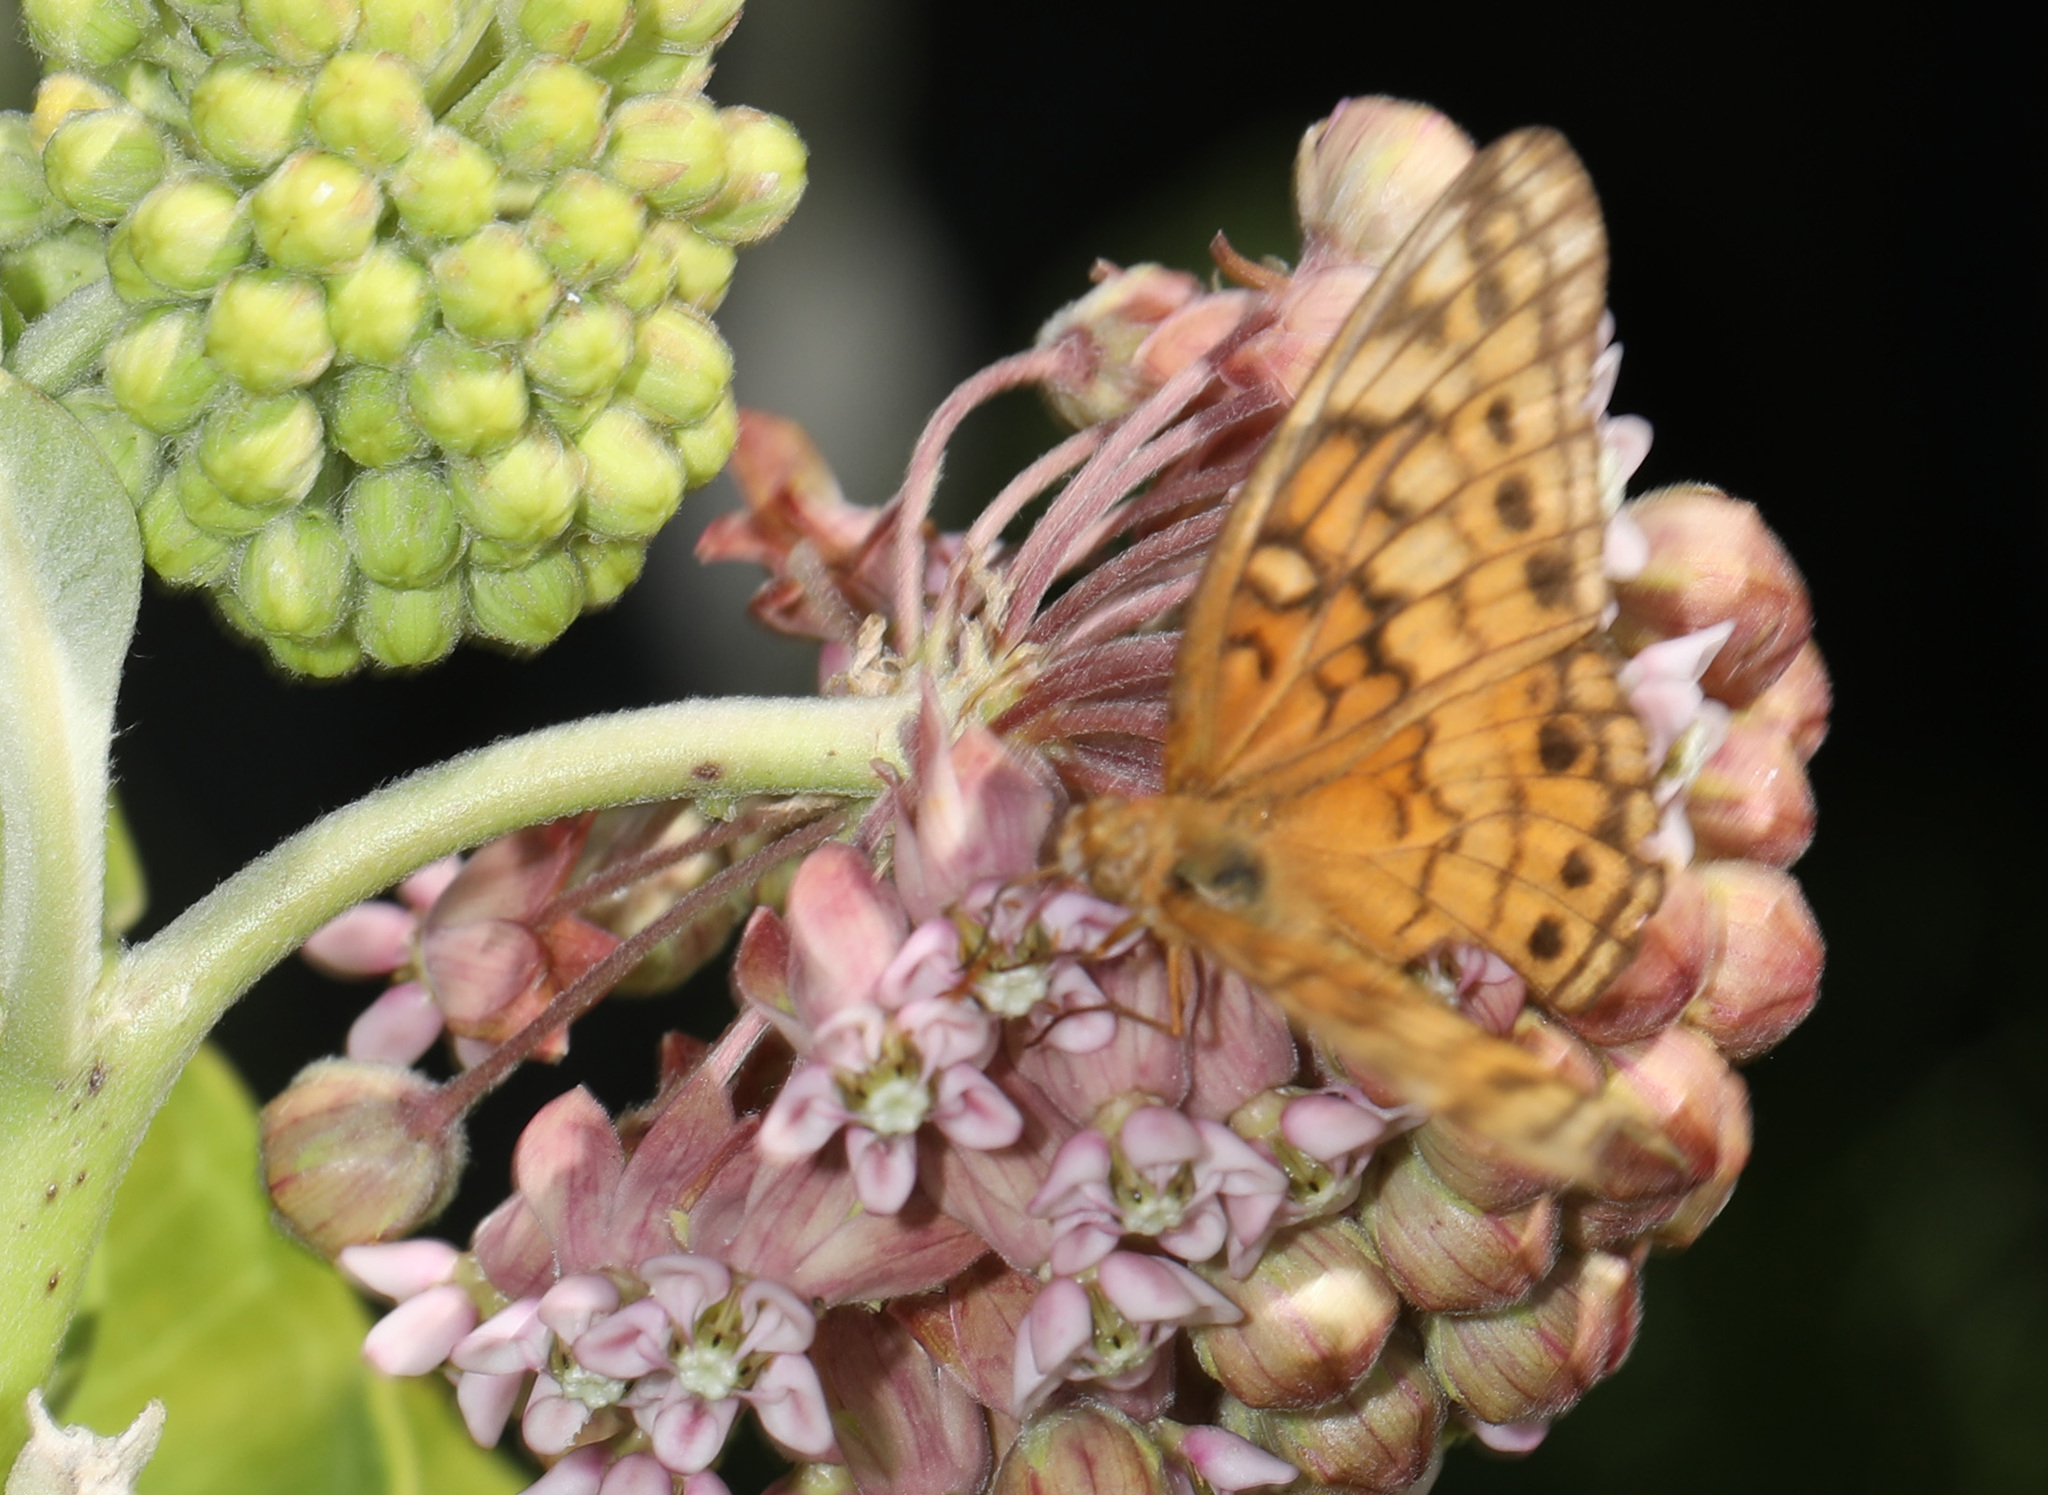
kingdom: Animalia
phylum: Arthropoda
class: Insecta
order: Lepidoptera
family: Nymphalidae
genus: Euptoieta
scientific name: Euptoieta claudia
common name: Variegated fritillary
